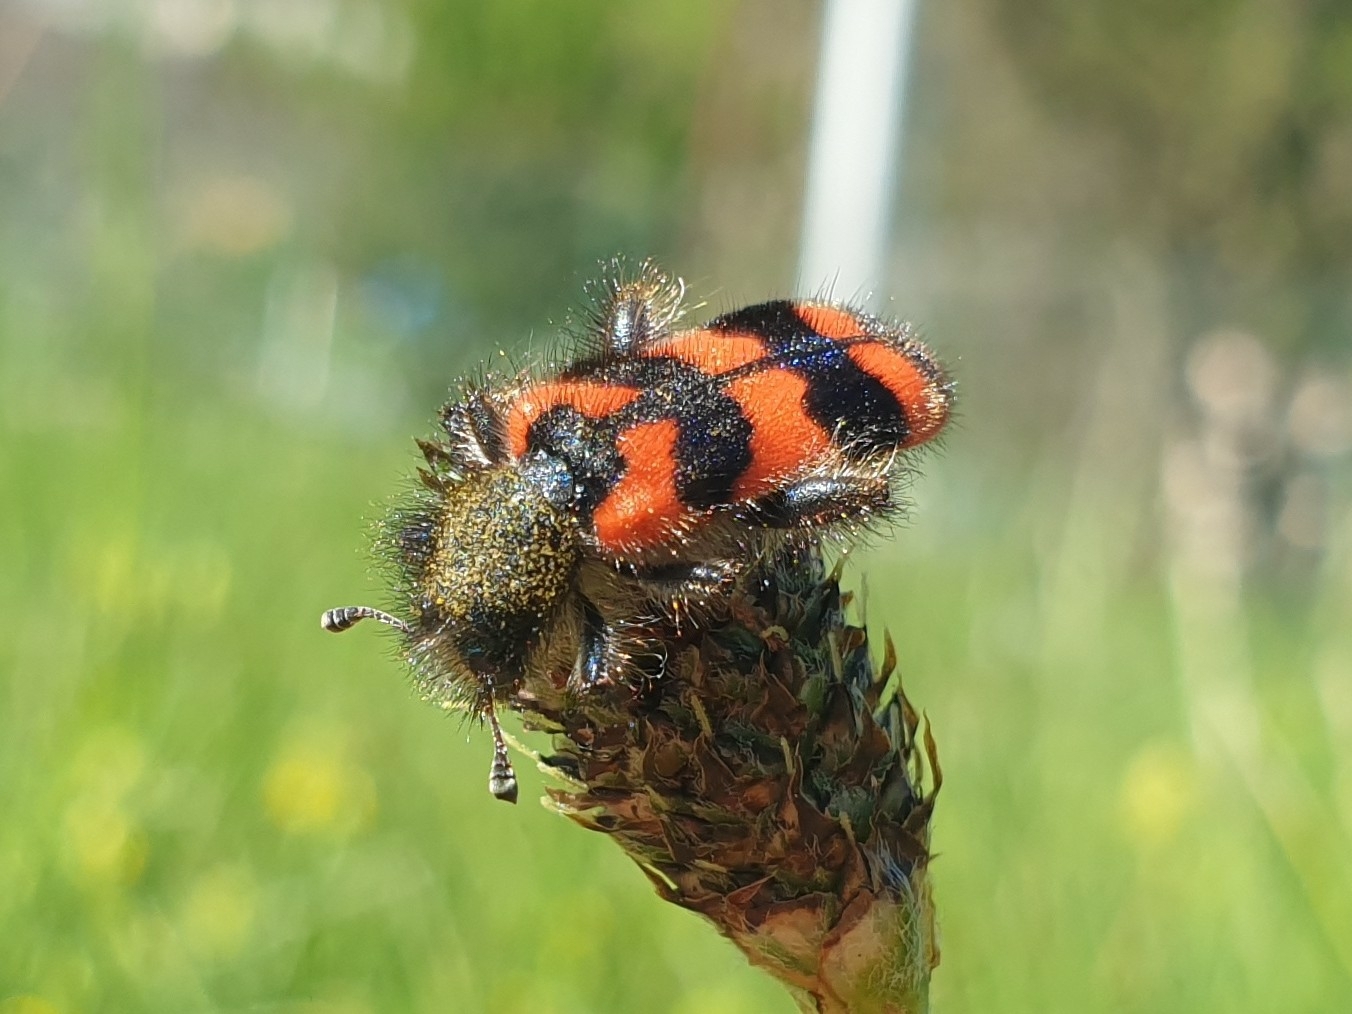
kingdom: Animalia
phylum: Arthropoda
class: Insecta
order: Coleoptera
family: Cleridae
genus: Trichodes
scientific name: Trichodes alvearius
